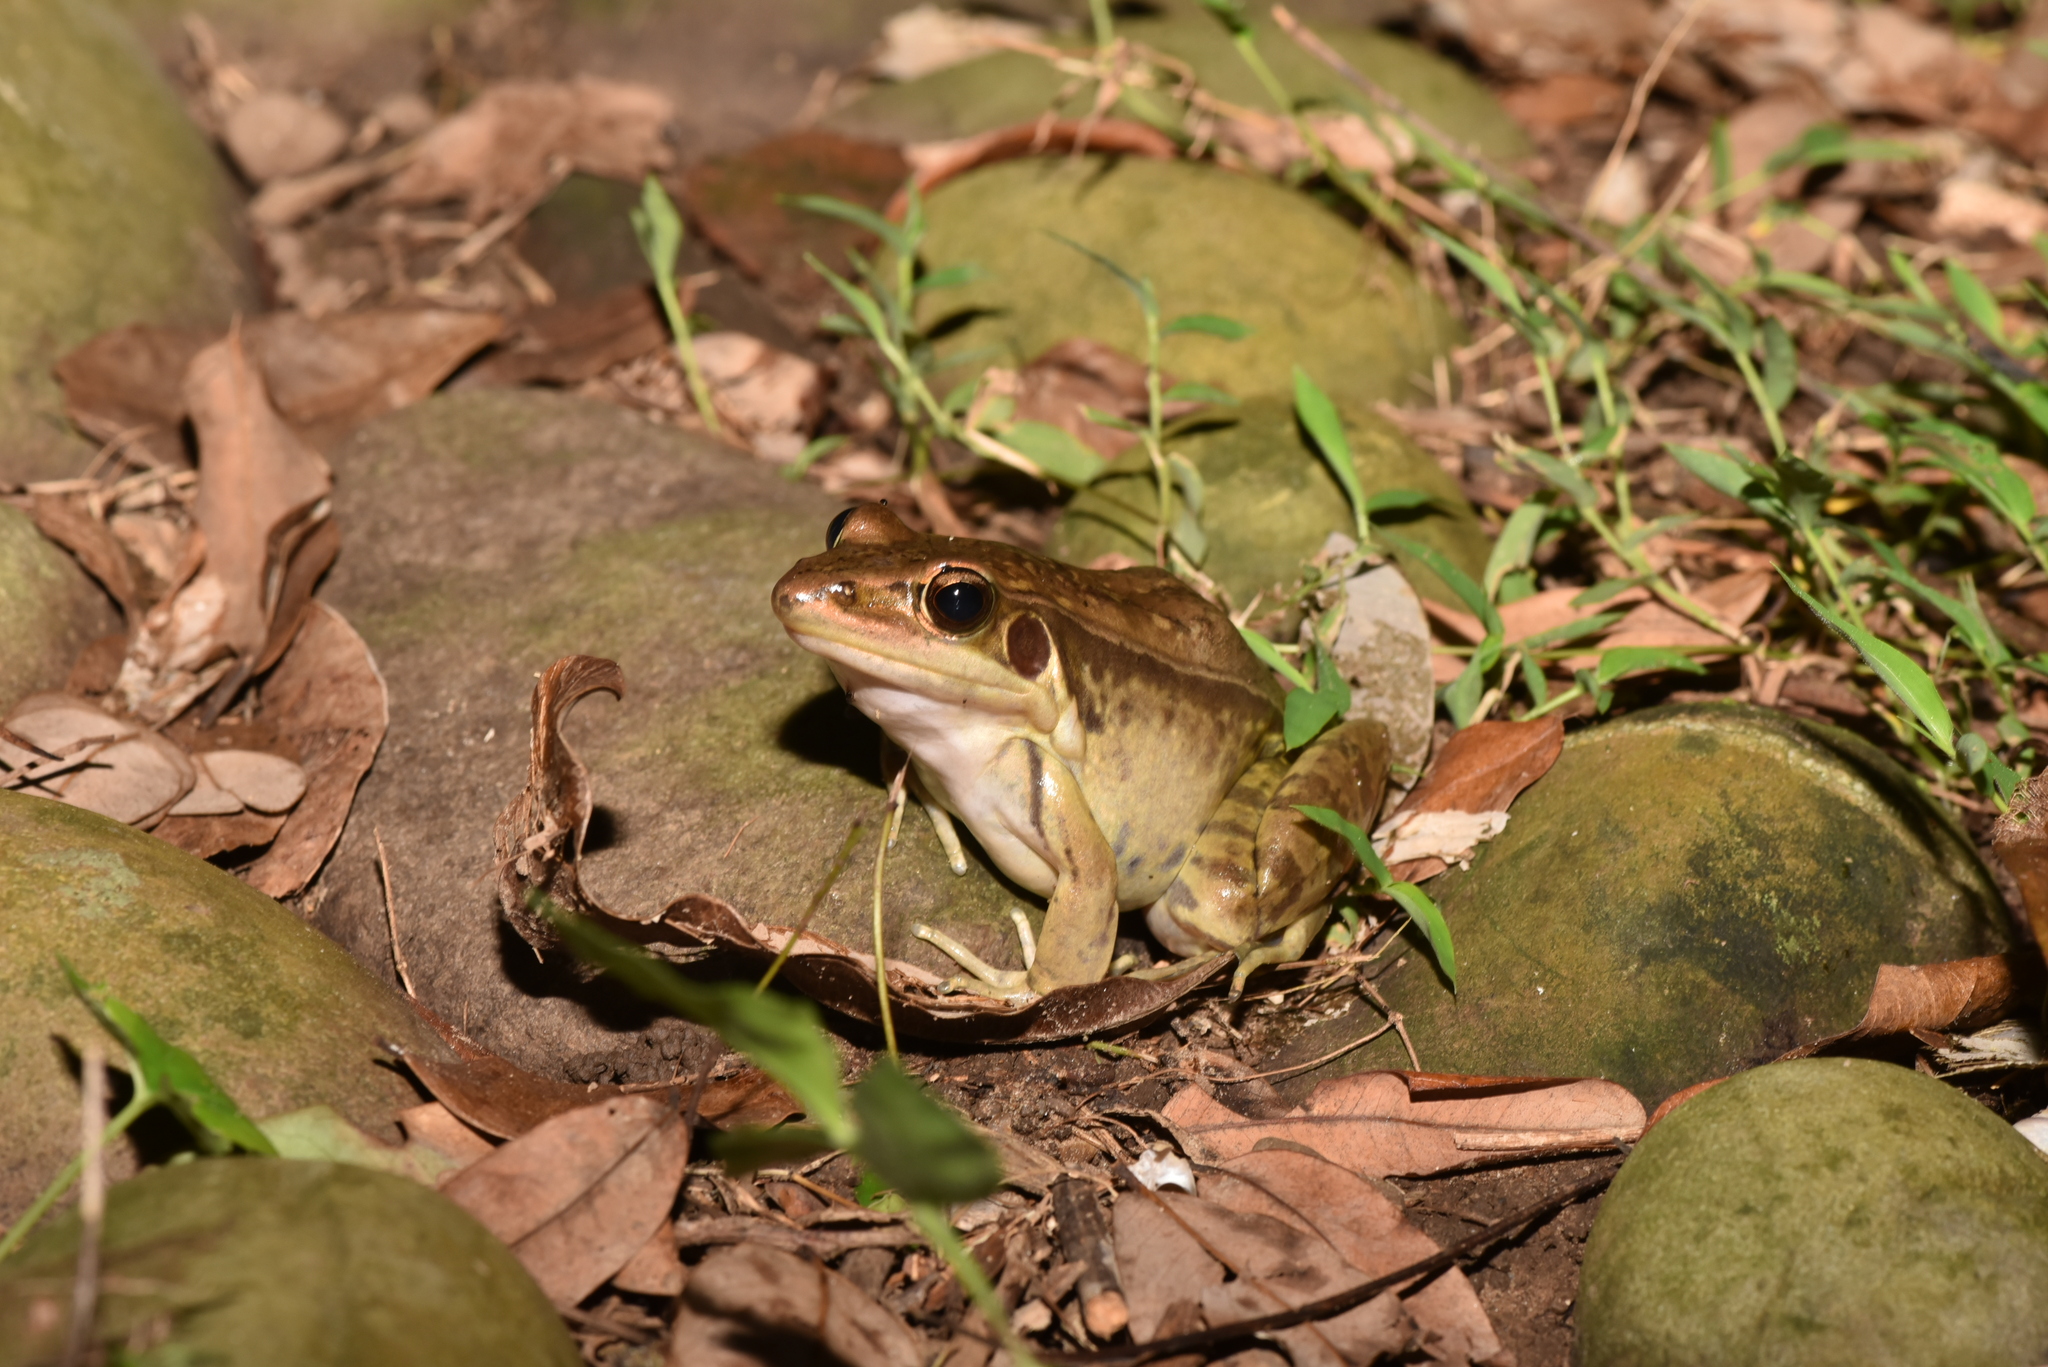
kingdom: Animalia
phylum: Chordata
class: Amphibia
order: Anura
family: Ranidae
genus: Sylvirana
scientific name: Sylvirana guentheri
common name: Guenther's amoy frog
